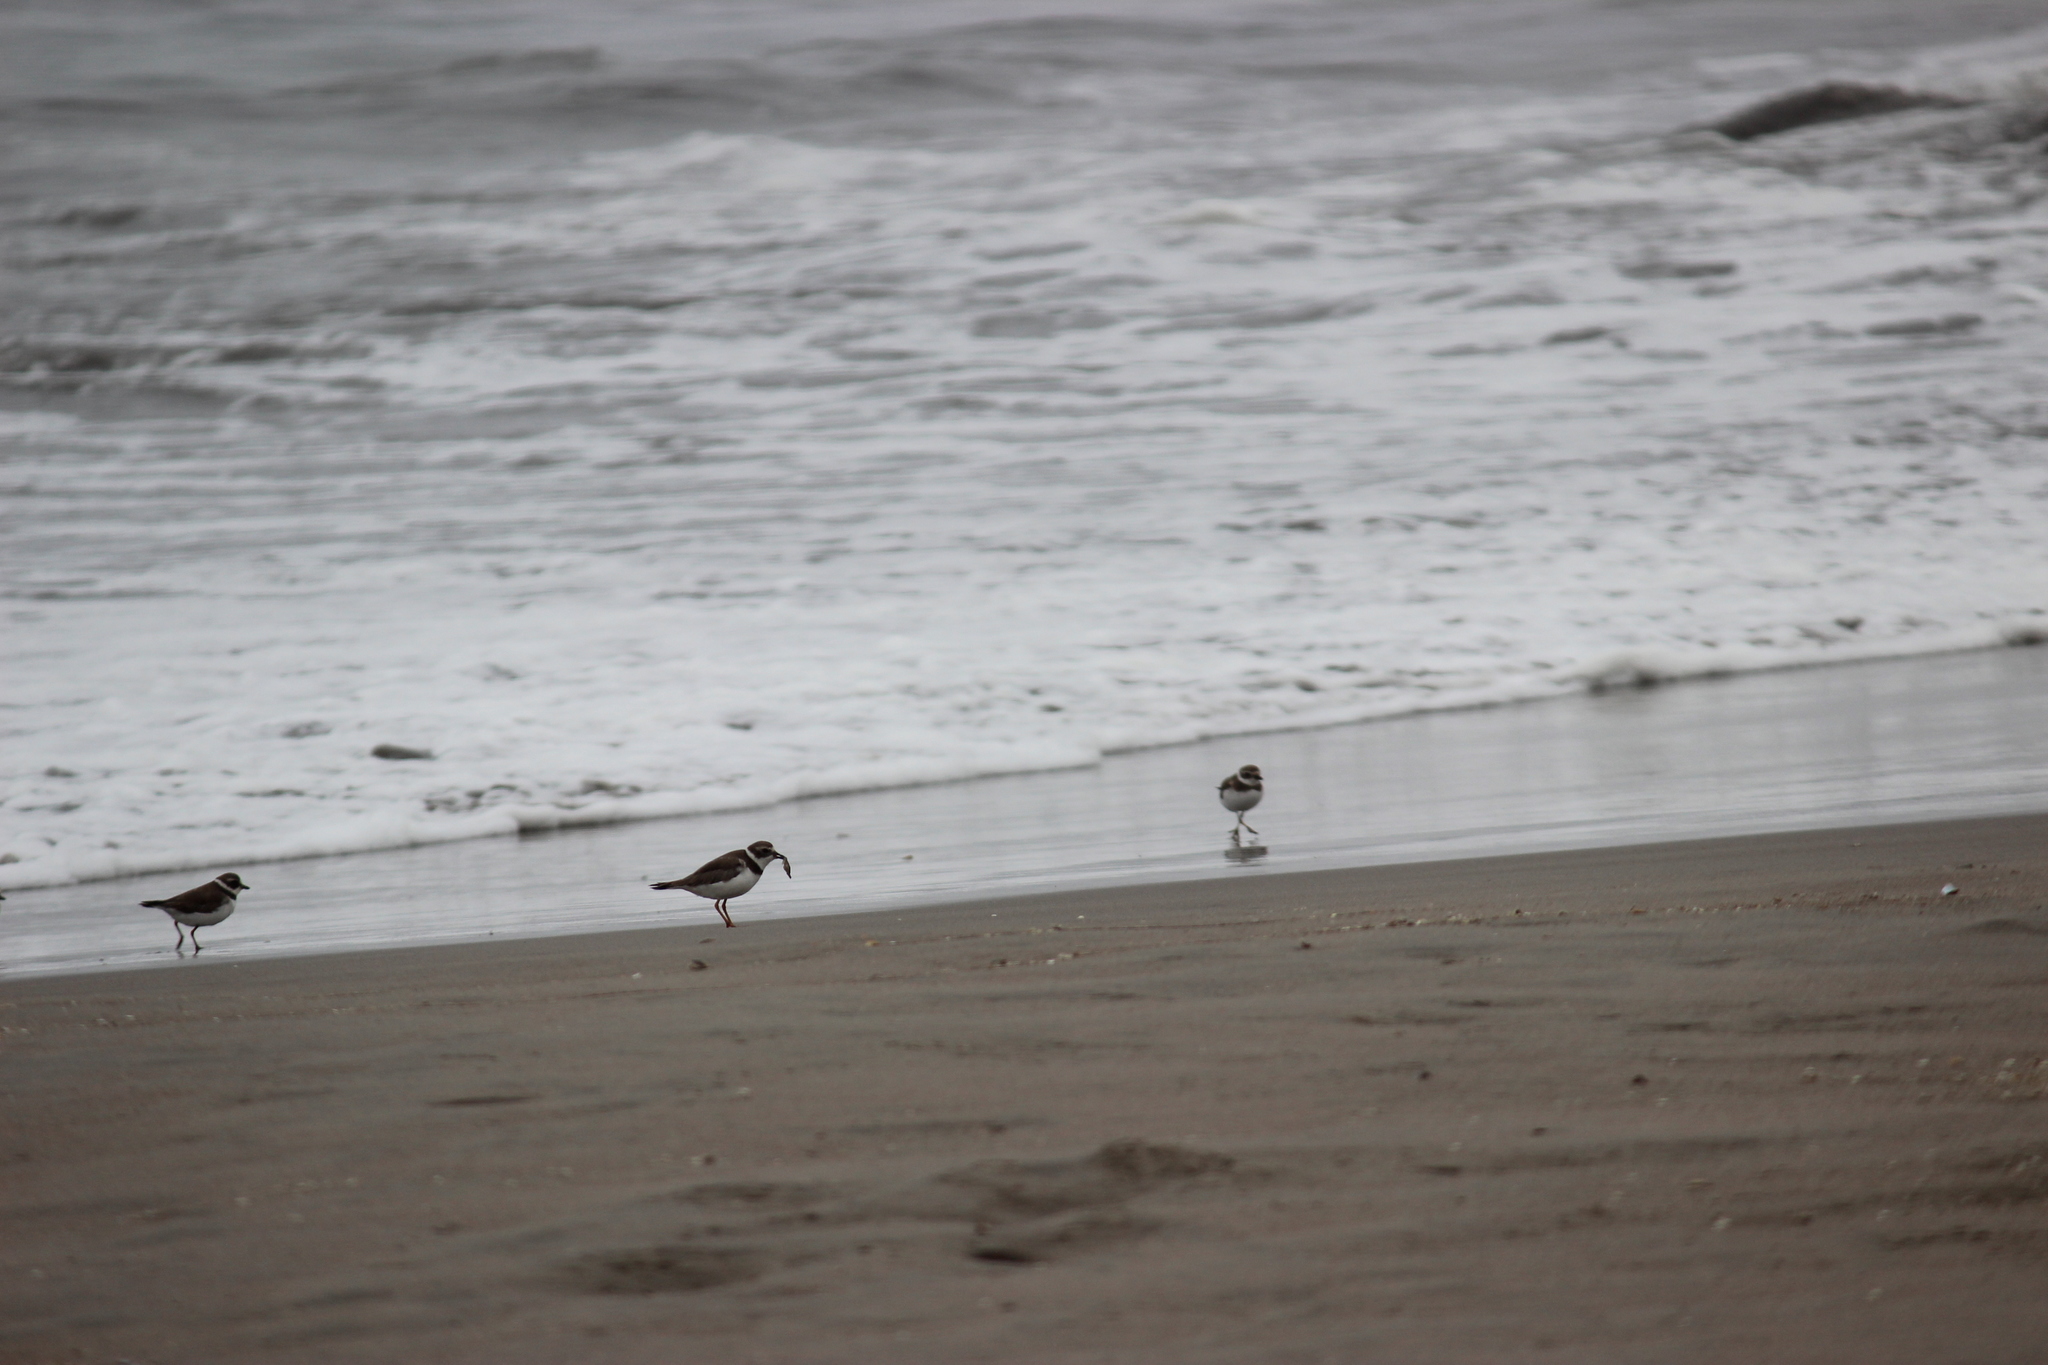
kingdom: Animalia
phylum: Chordata
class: Aves
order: Charadriiformes
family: Charadriidae
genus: Charadrius
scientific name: Charadrius semipalmatus
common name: Semipalmated plover
